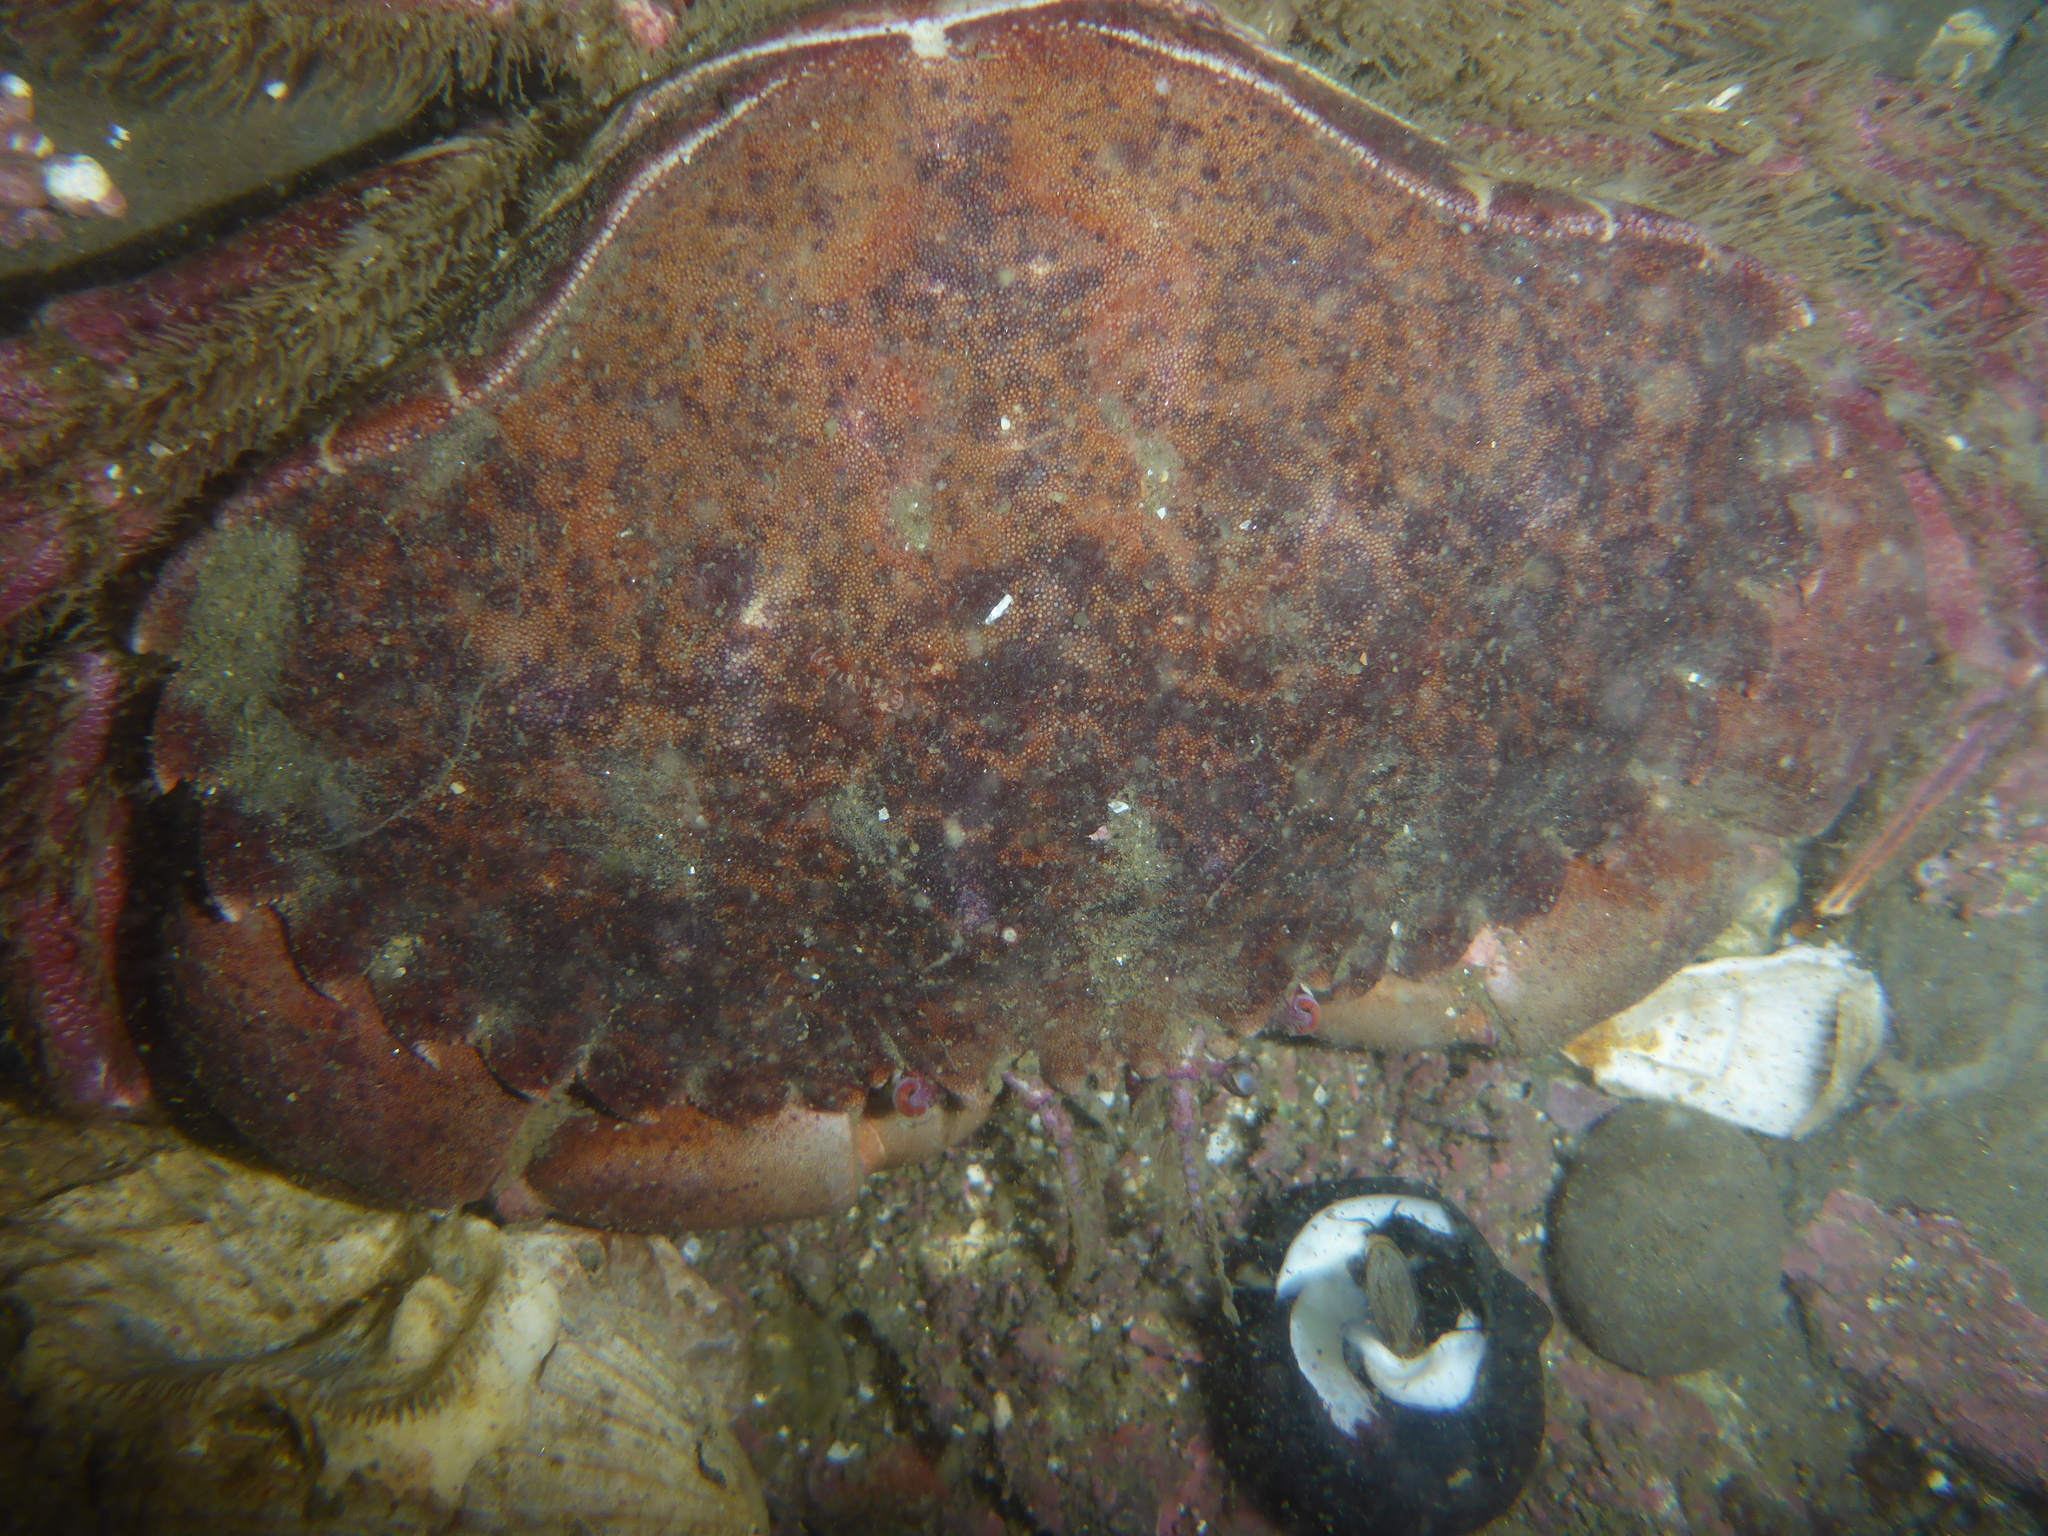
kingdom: Animalia
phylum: Arthropoda
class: Malacostraca
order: Decapoda
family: Cancridae
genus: Romaleon
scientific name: Romaleon antennarium
